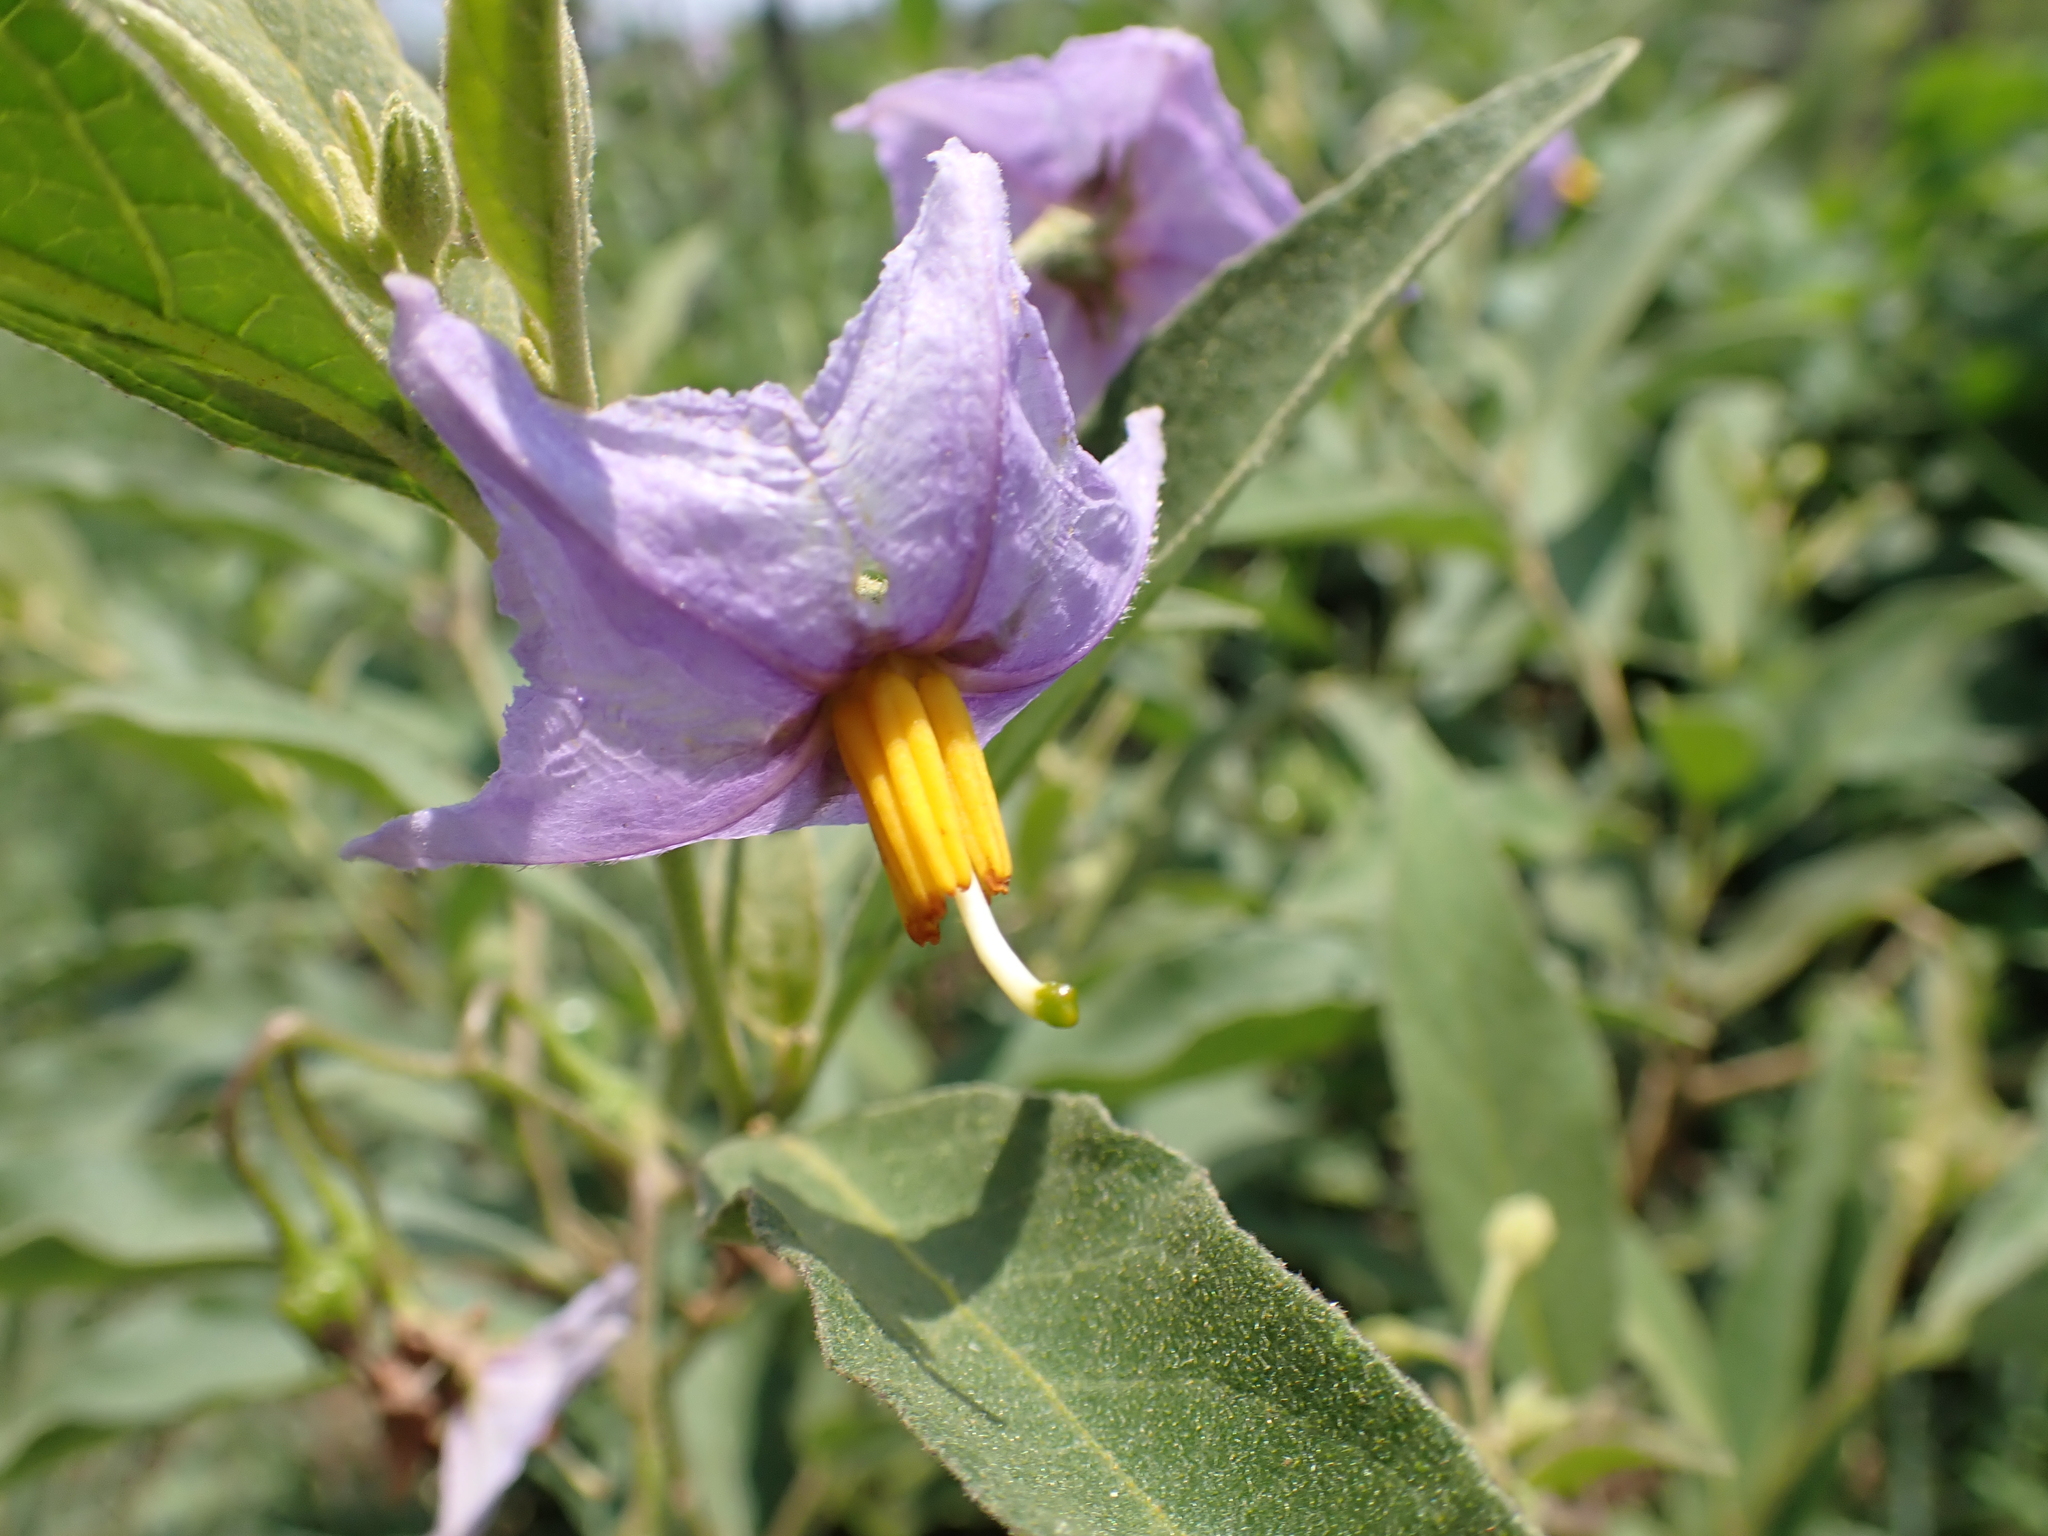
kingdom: Plantae
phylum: Tracheophyta
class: Magnoliopsida
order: Solanales
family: Solanaceae
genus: Solanum
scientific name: Solanum campylacanthum
